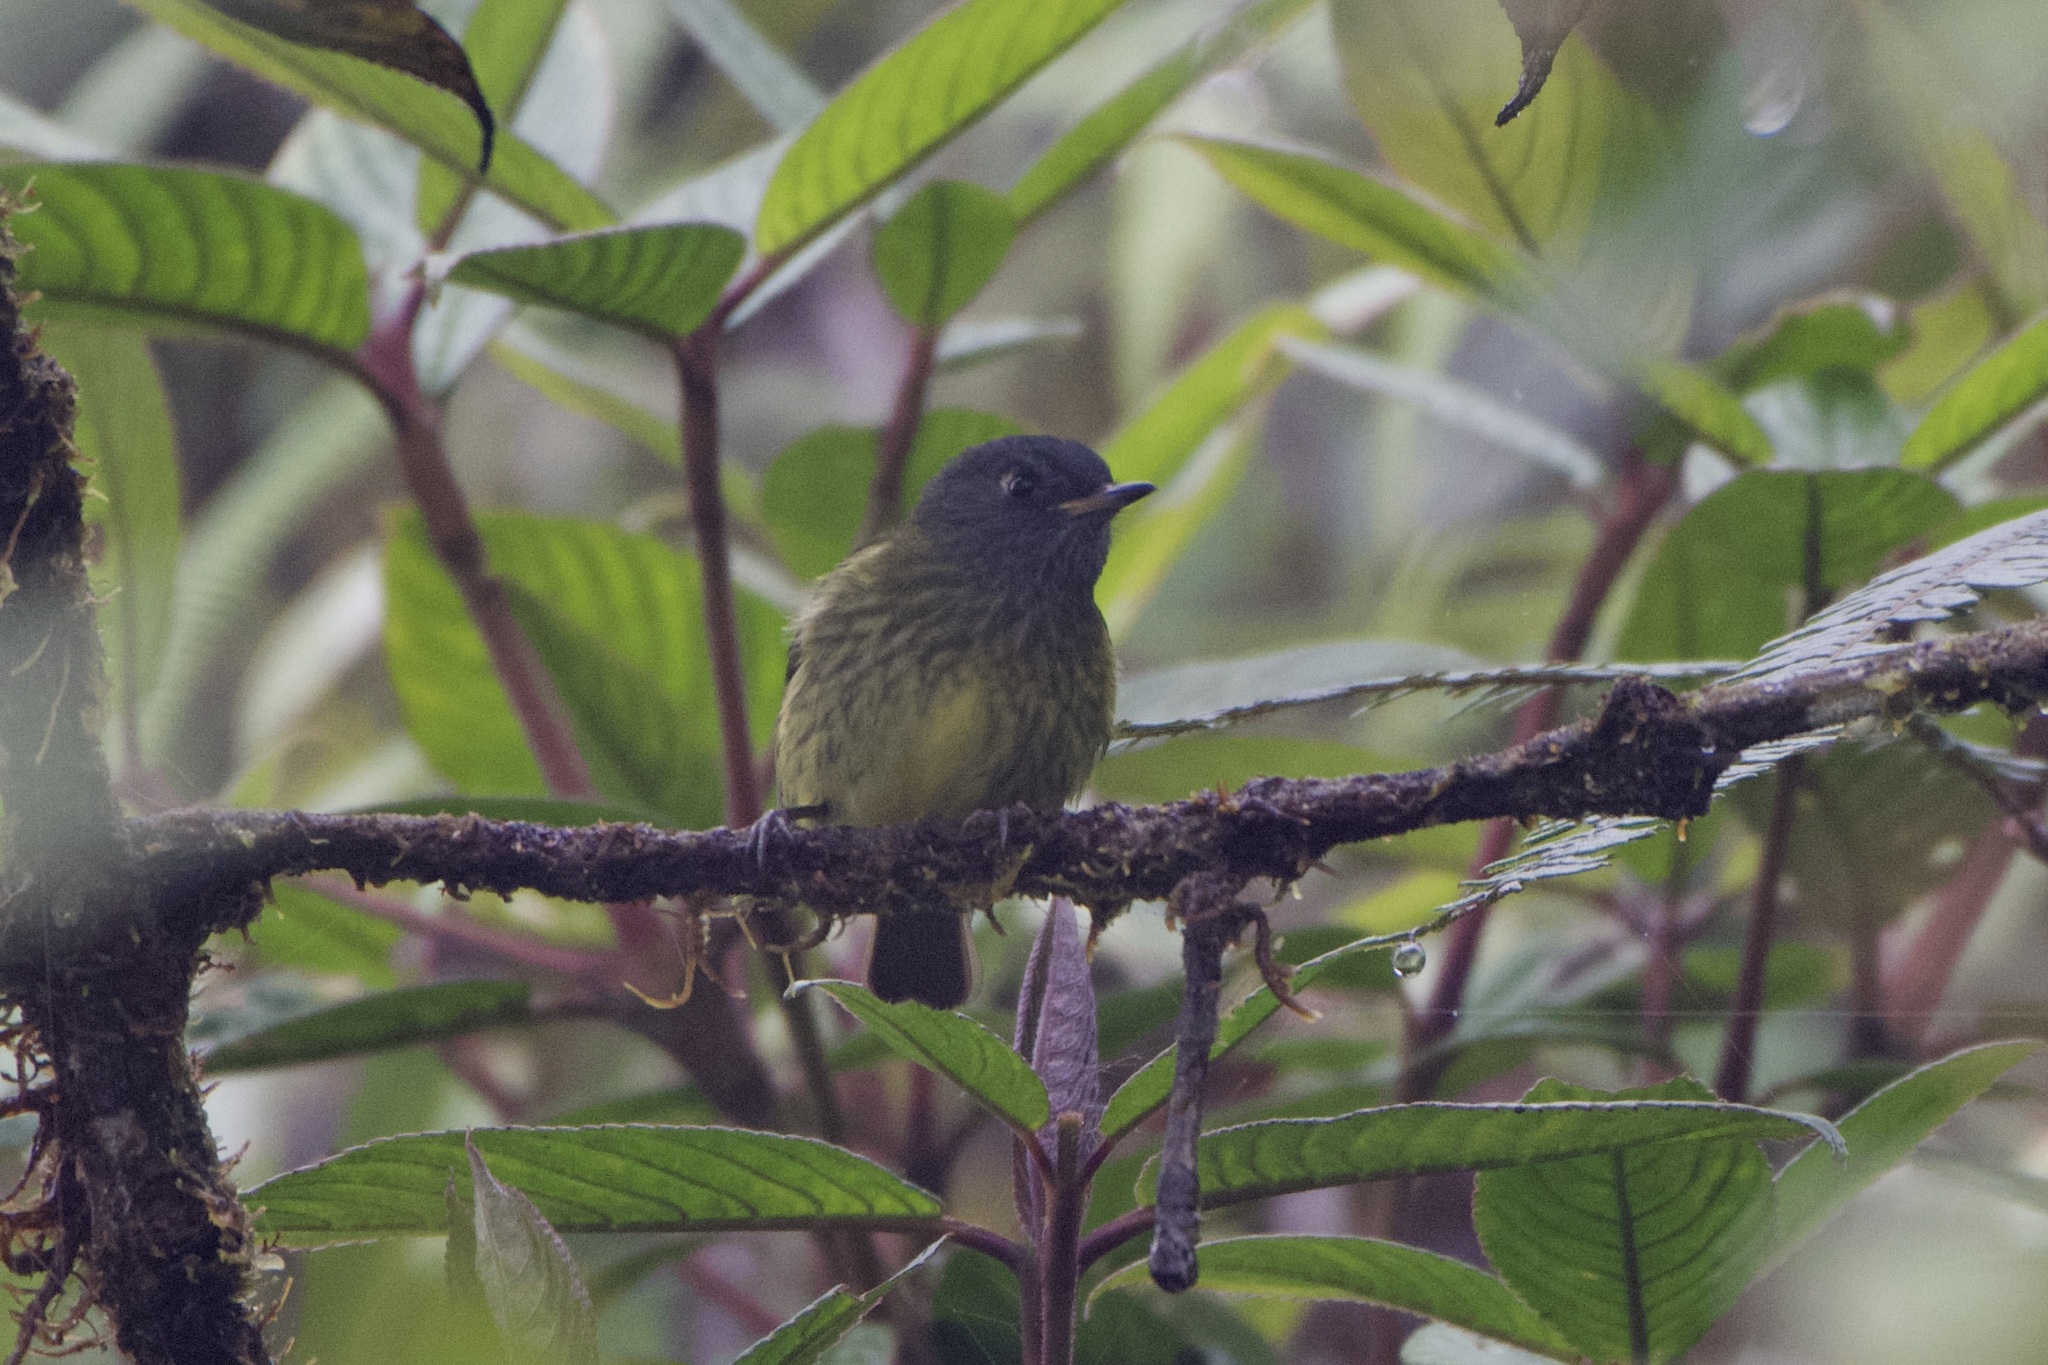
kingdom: Animalia
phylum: Chordata
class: Aves
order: Passeriformes
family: Tyrannidae
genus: Mionectes
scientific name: Mionectes striaticollis
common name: Streak-necked flycatcher
